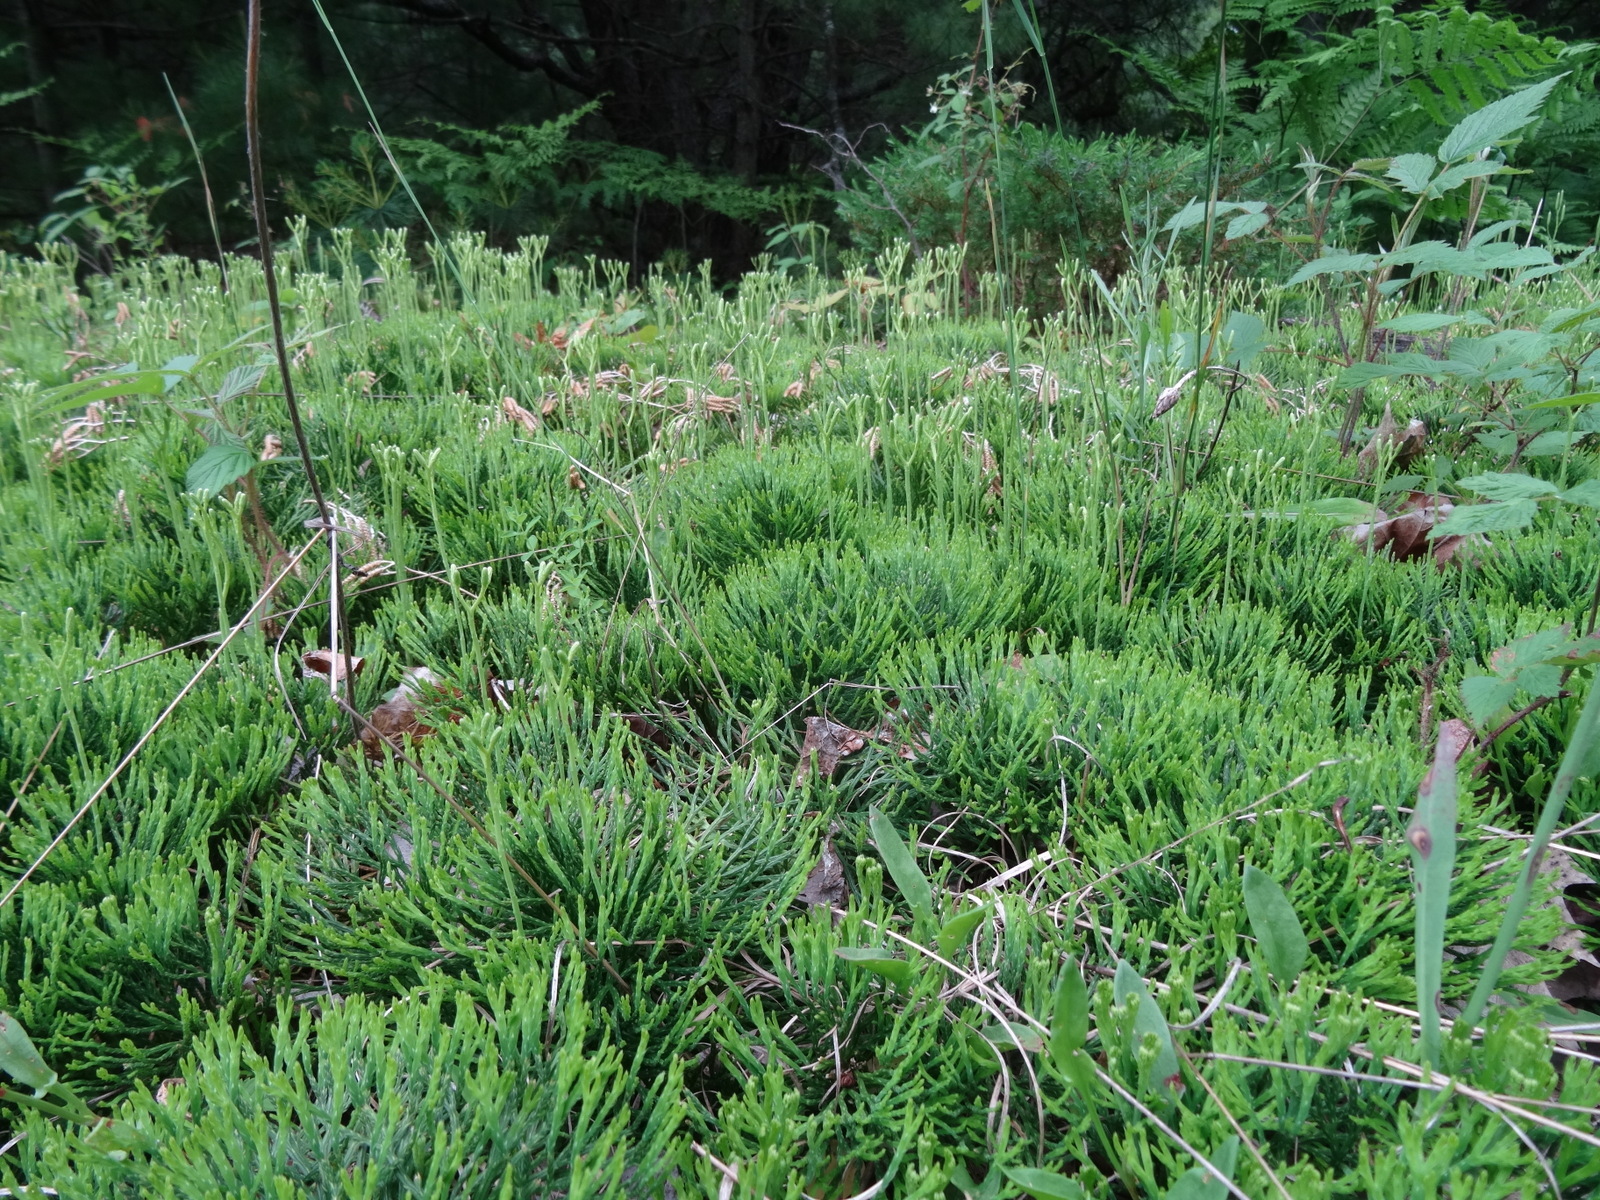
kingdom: Plantae
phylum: Tracheophyta
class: Lycopodiopsida
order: Lycopodiales
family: Lycopodiaceae
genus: Diphasiastrum
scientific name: Diphasiastrum tristachyum
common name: Blue ground-cedar
